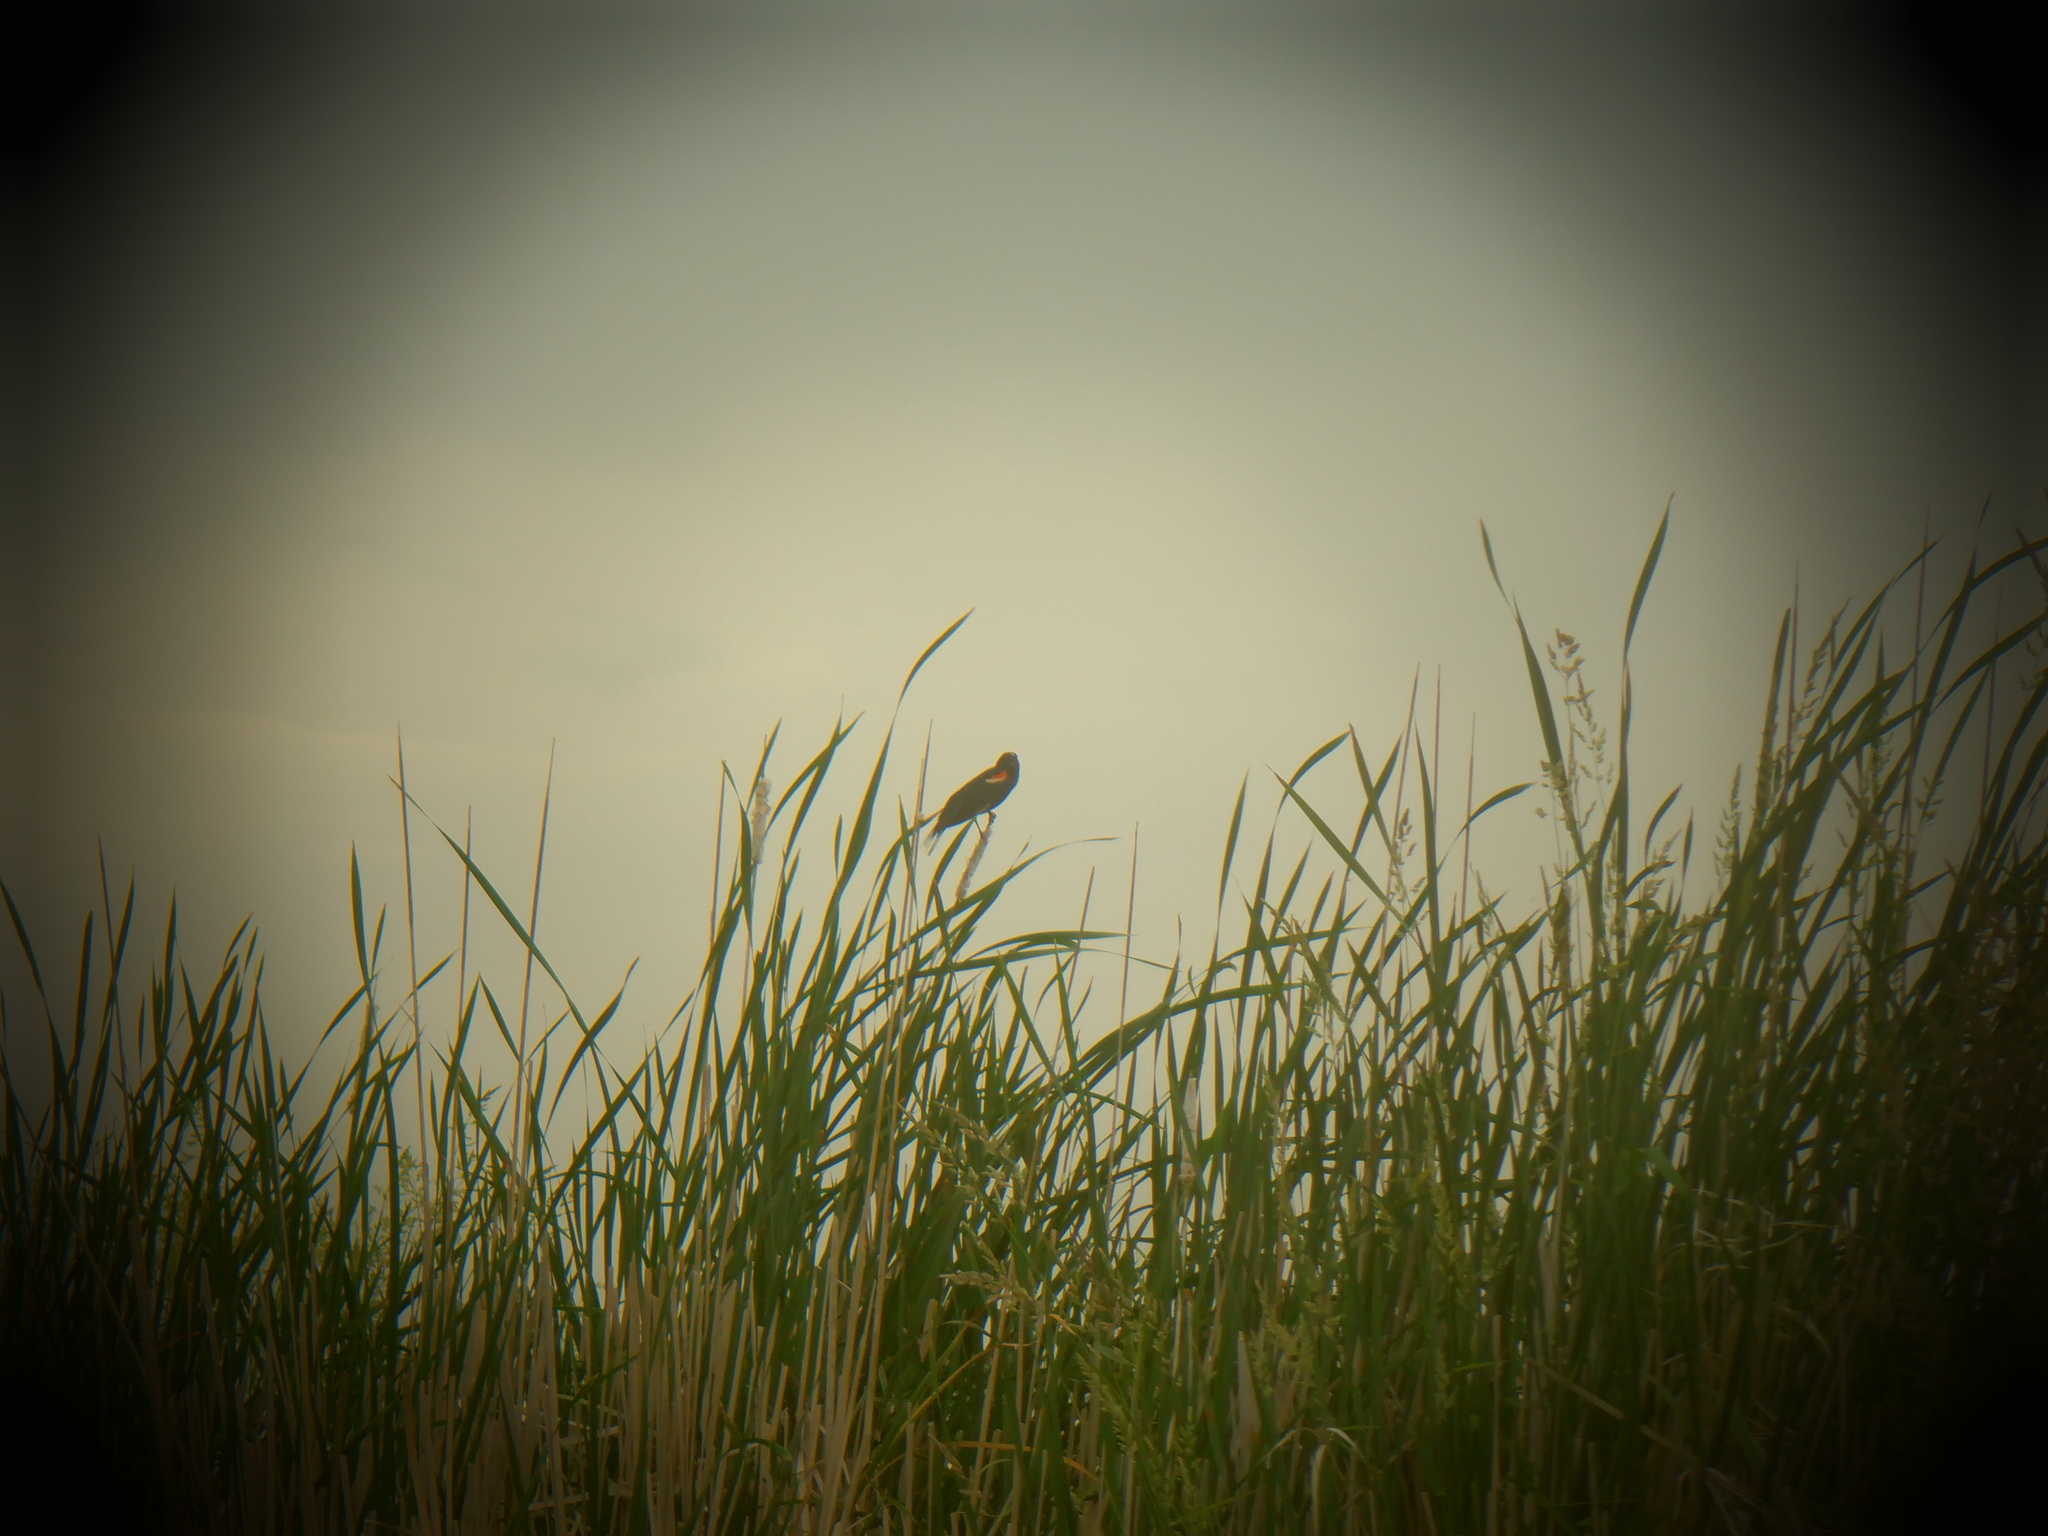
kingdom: Animalia
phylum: Chordata
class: Aves
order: Passeriformes
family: Icteridae
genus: Agelaius
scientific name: Agelaius phoeniceus
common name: Red-winged blackbird
